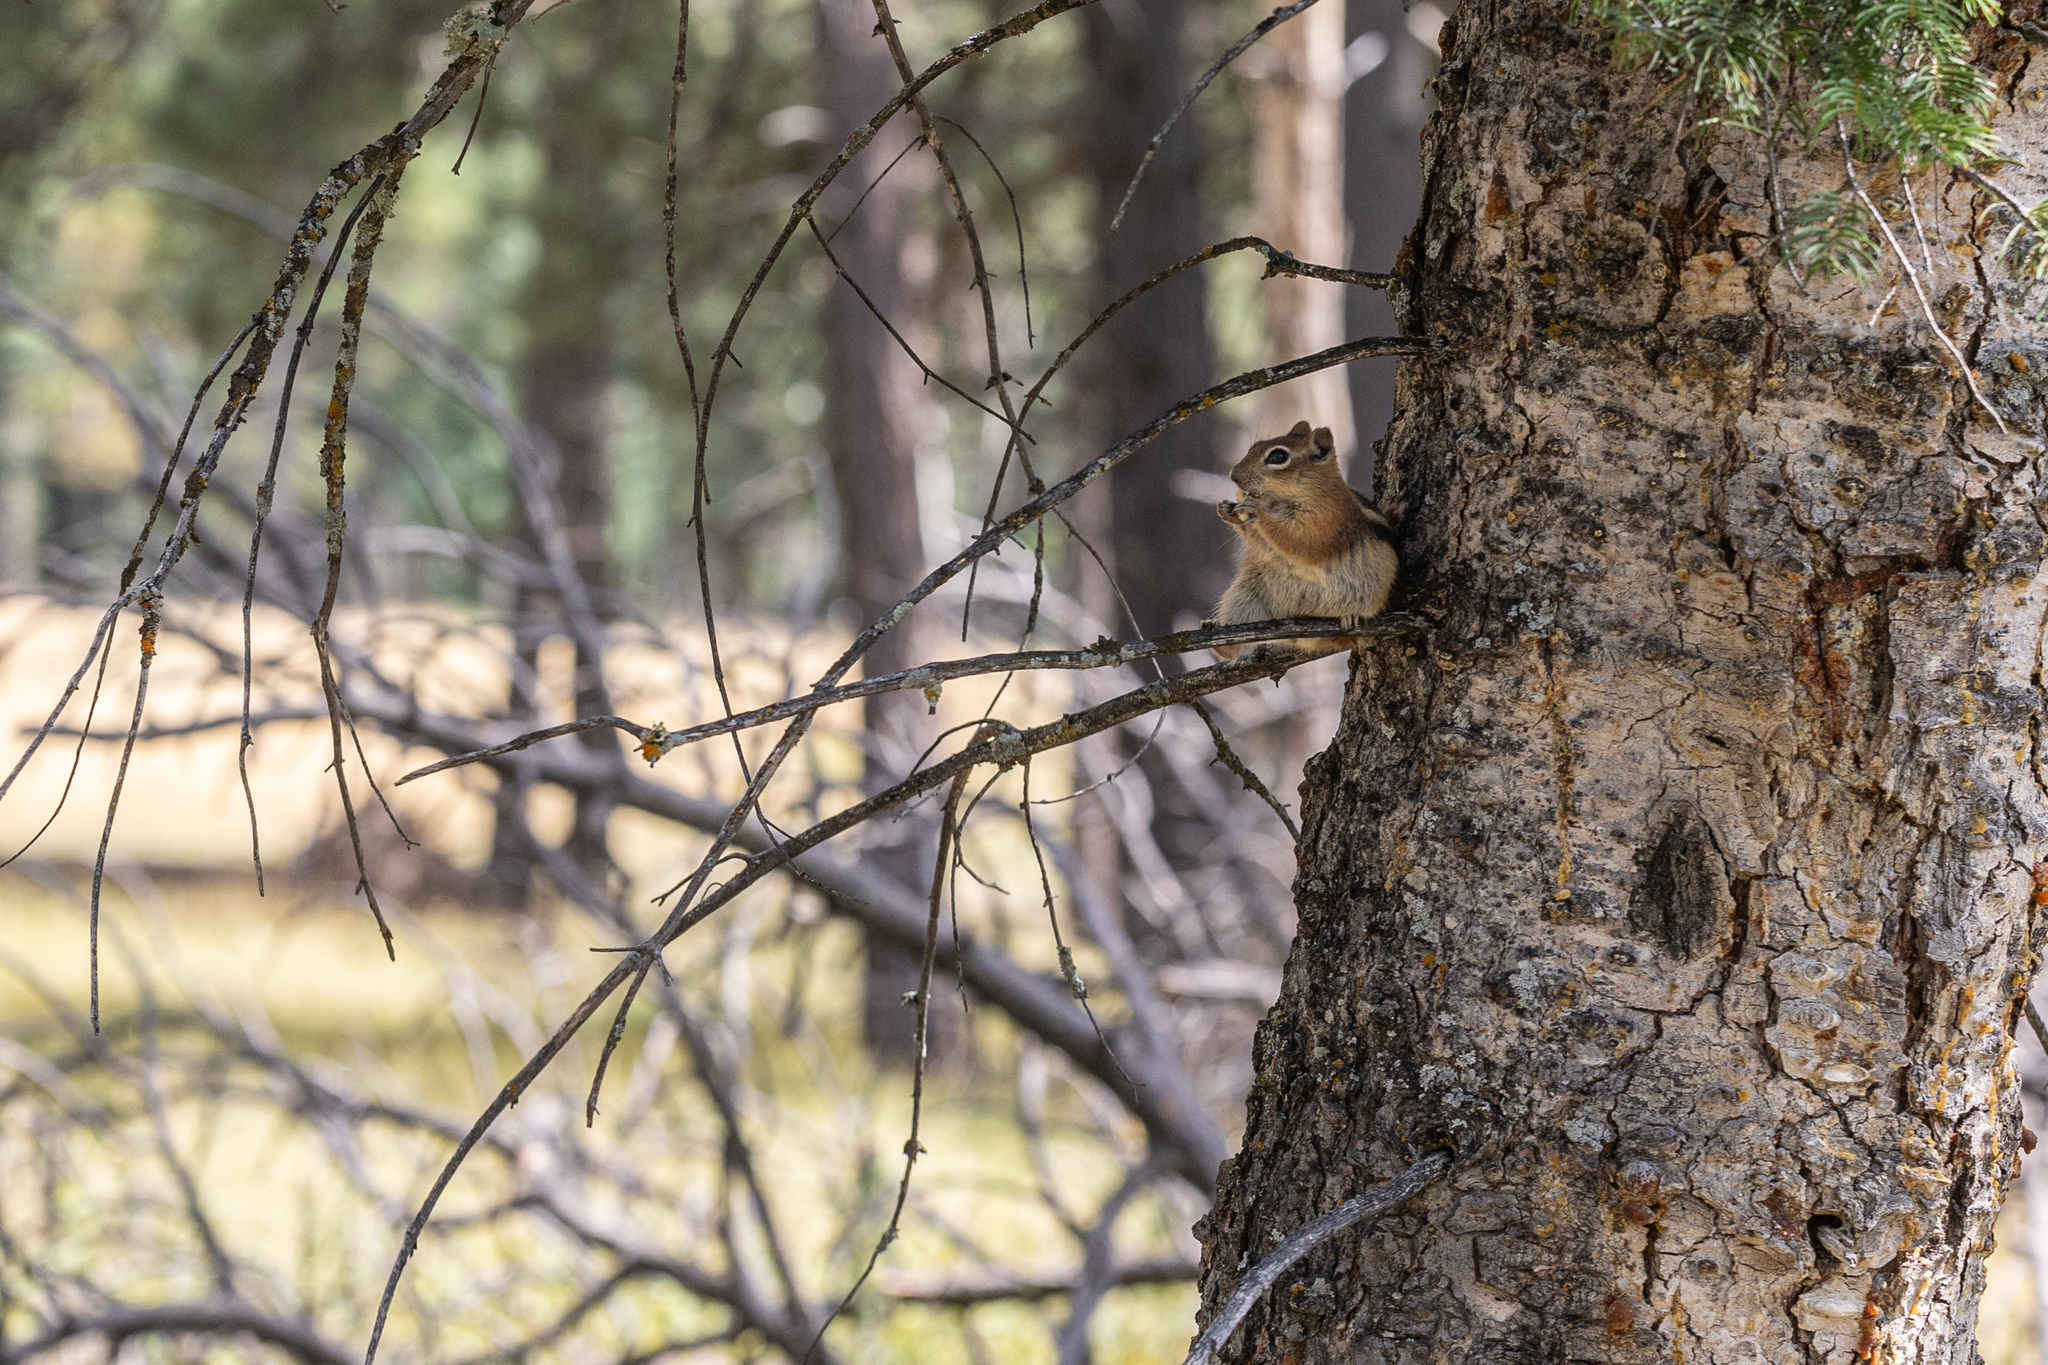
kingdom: Animalia
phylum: Chordata
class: Mammalia
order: Rodentia
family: Sciuridae
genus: Callospermophilus
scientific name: Callospermophilus lateralis
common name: Golden-mantled ground squirrel
